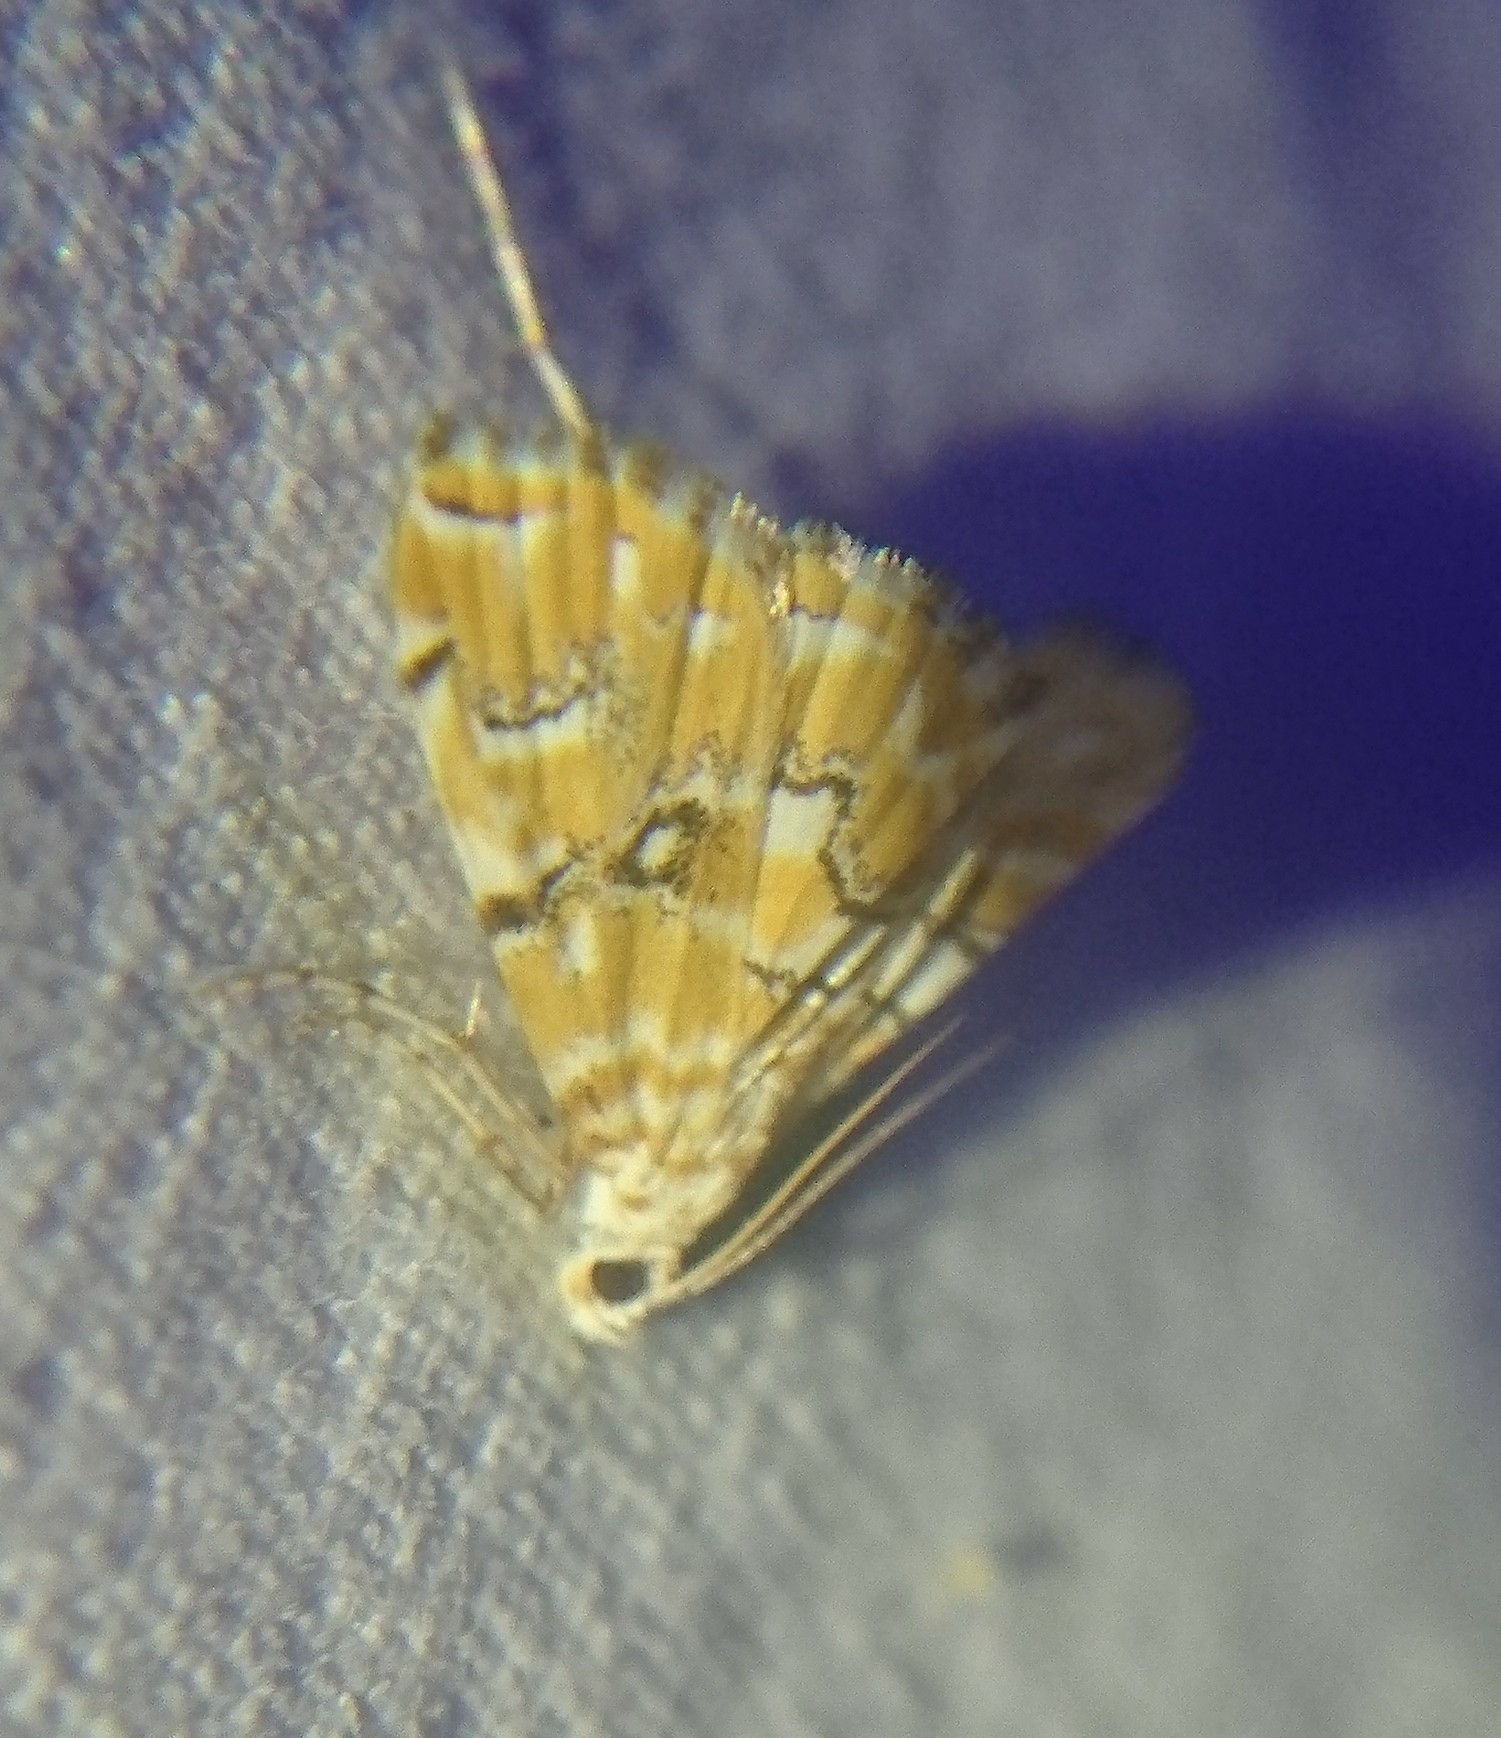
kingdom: Animalia
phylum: Arthropoda
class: Insecta
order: Lepidoptera
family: Crambidae
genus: Elophila
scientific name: Elophila icciusalis
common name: Pondside pyralid moth
